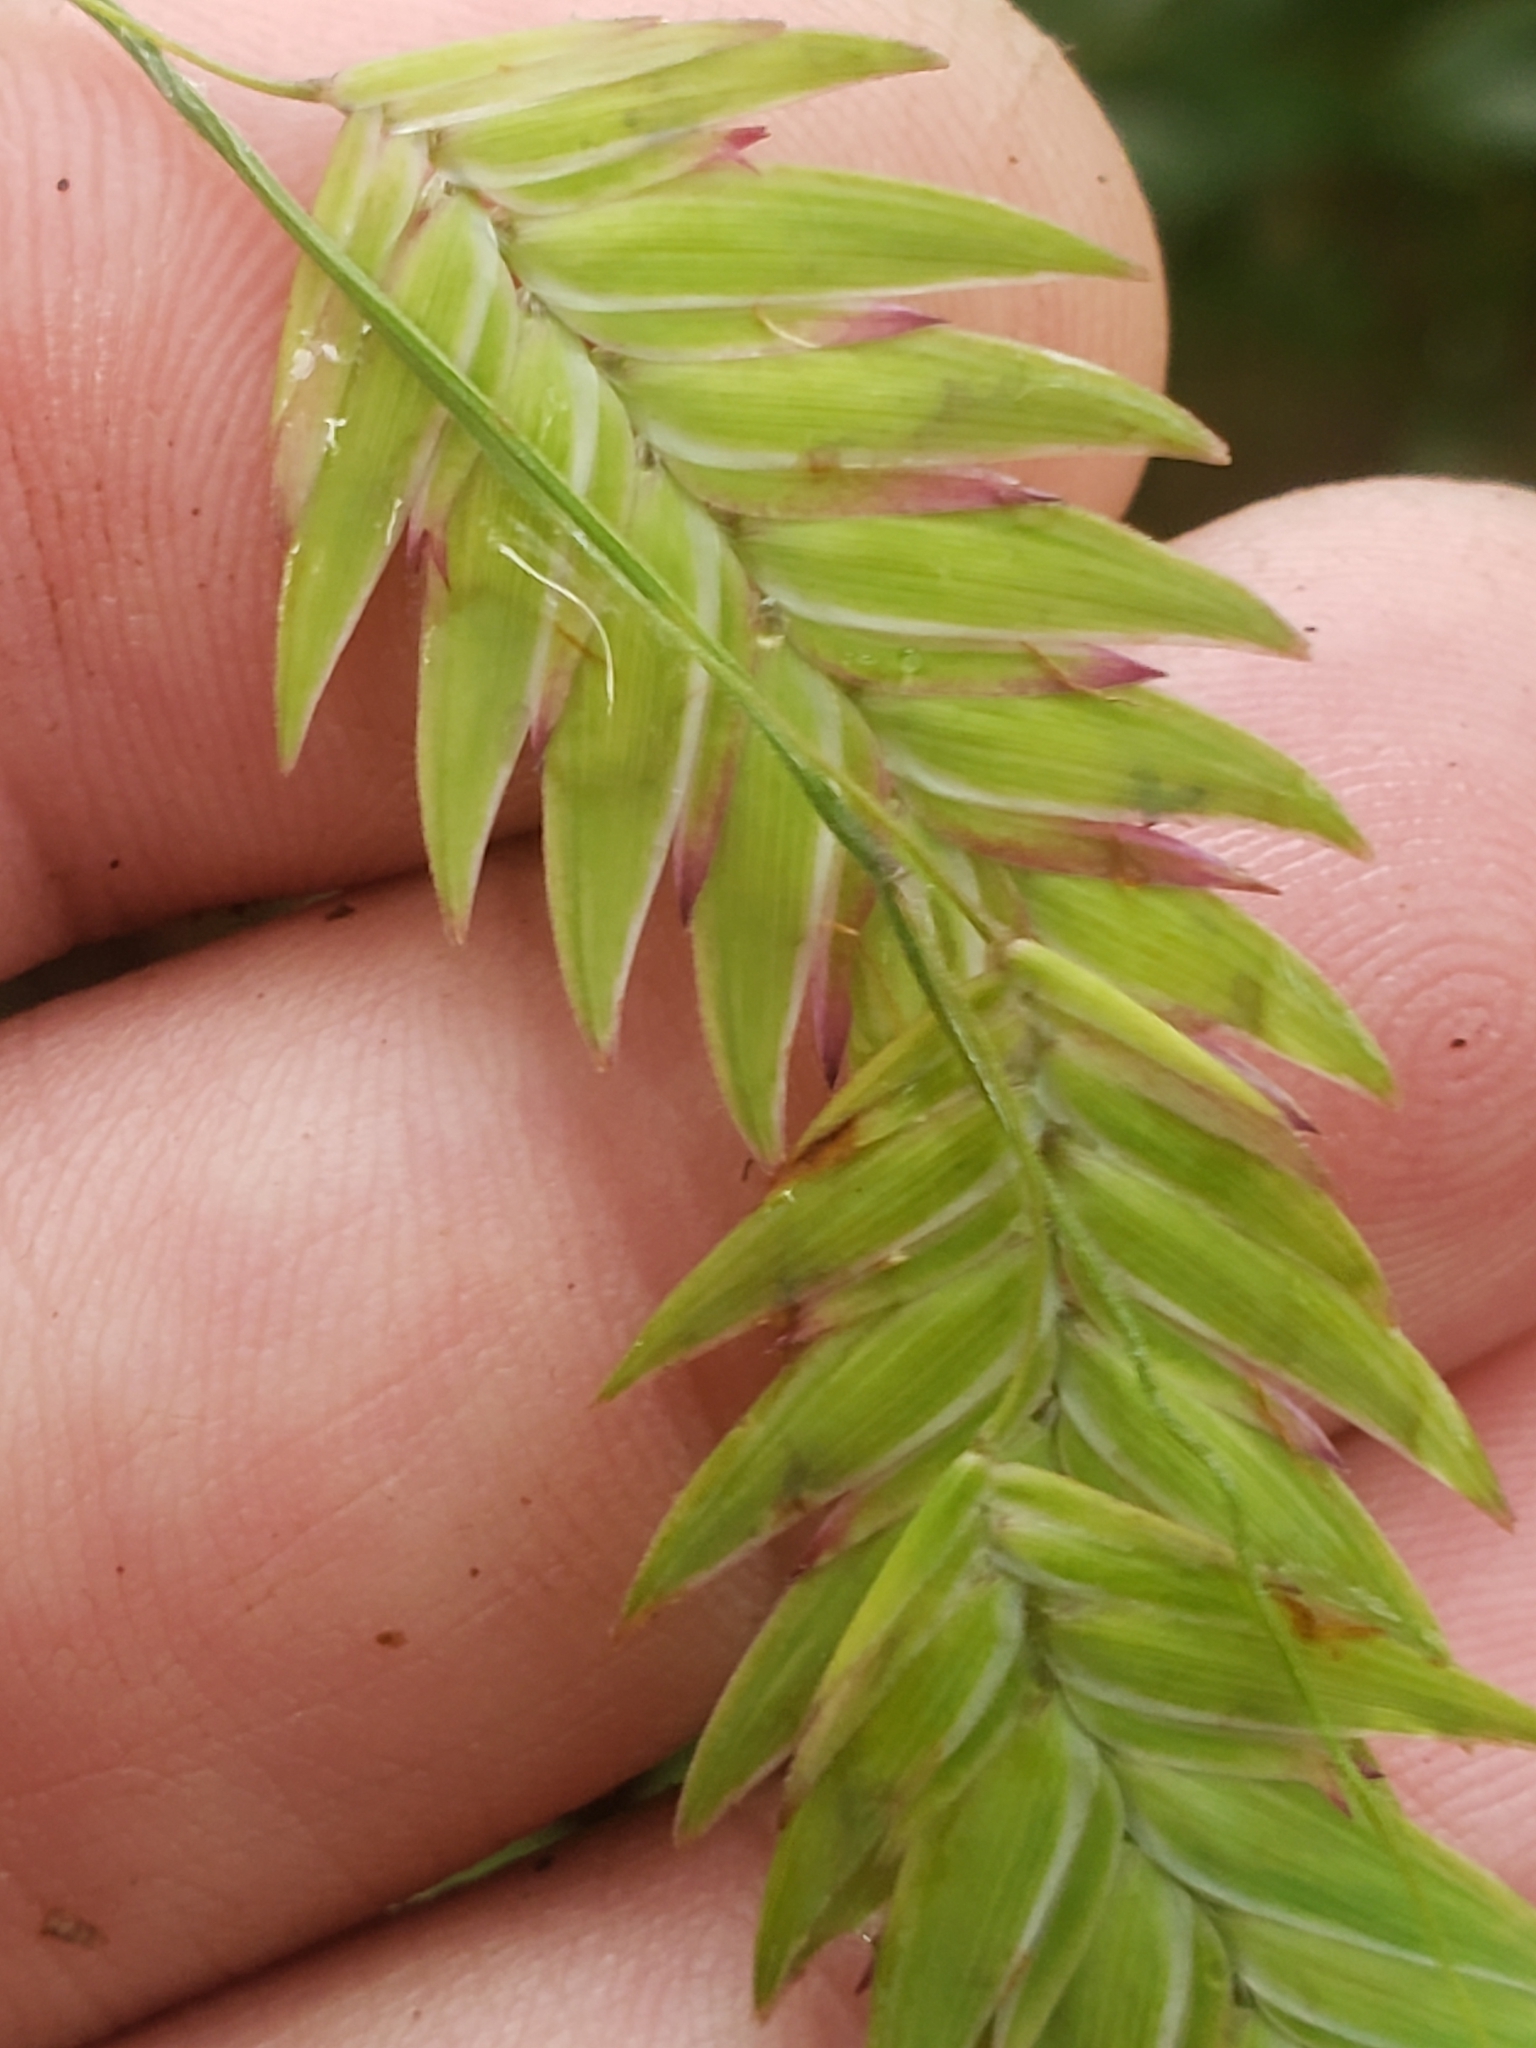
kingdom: Plantae
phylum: Tracheophyta
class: Liliopsida
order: Poales
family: Poaceae
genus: Chasmanthium
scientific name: Chasmanthium latifolium
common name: Broad-leaved chasmanthium
